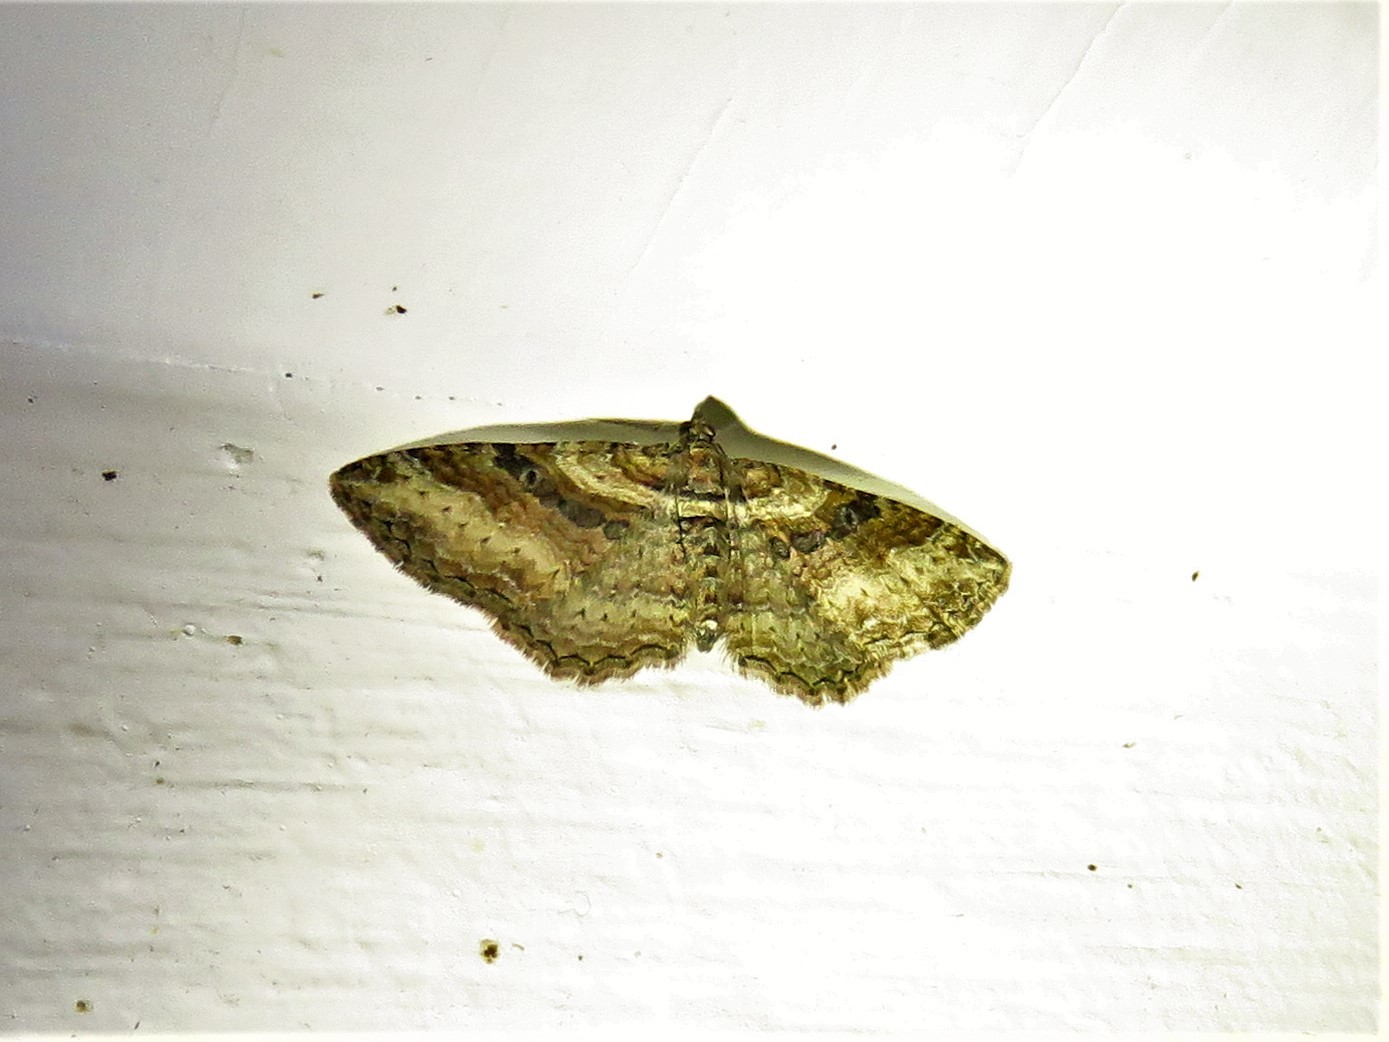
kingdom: Animalia
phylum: Arthropoda
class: Insecta
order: Lepidoptera
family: Geometridae
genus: Costaconvexa
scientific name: Costaconvexa centrostrigaria
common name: Bent-line carpet
